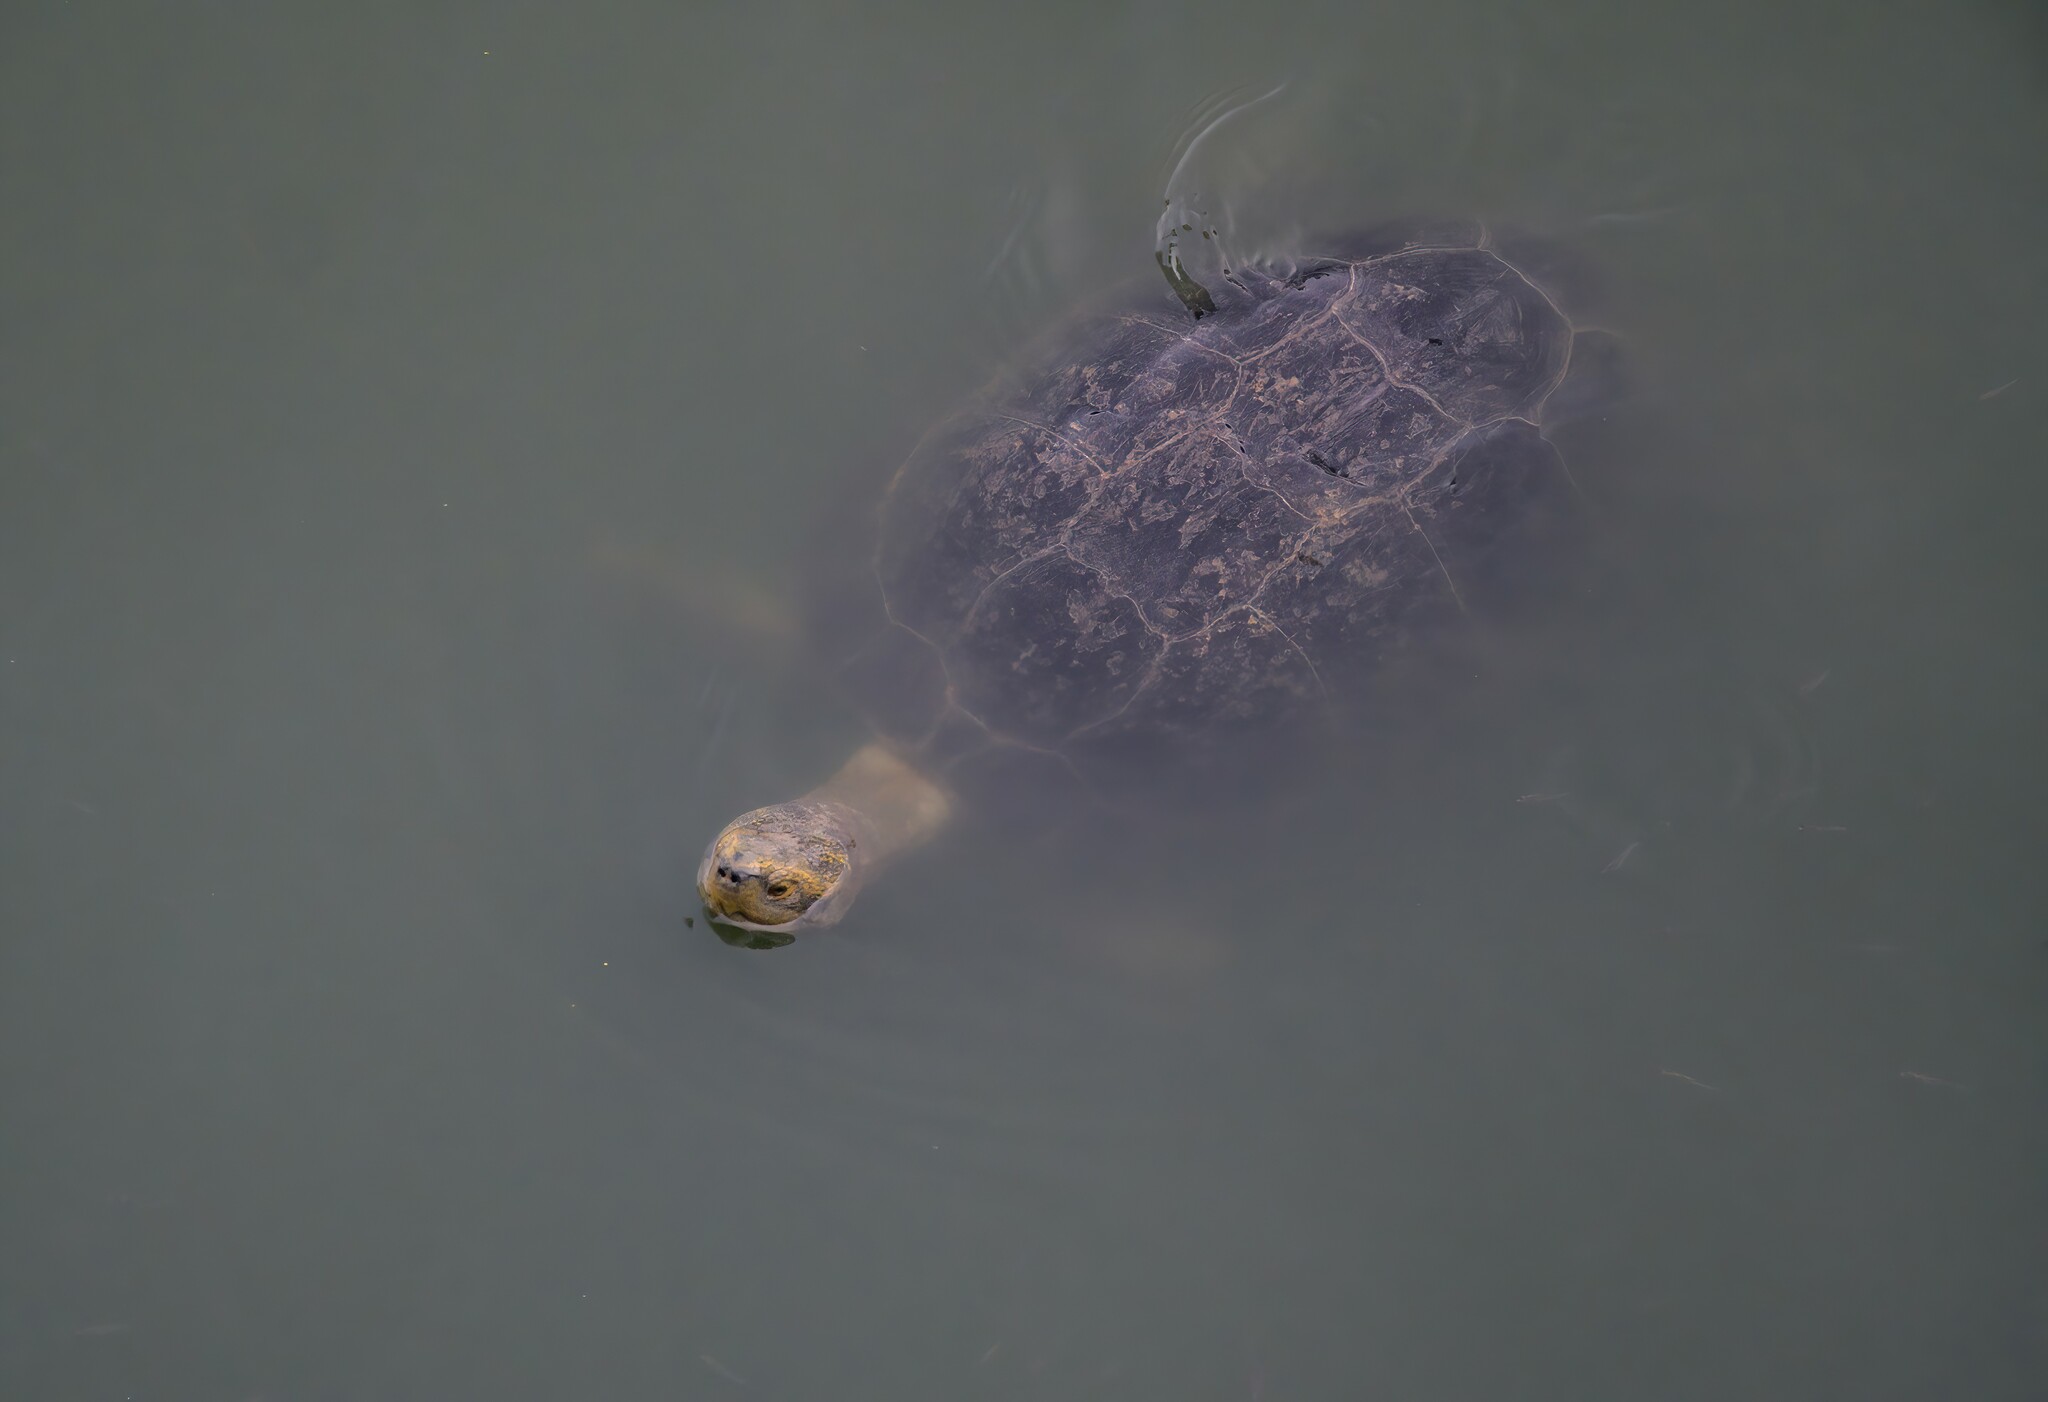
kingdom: Animalia
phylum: Chordata
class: Testudines
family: Geoemydidae
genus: Heosemys
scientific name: Heosemys annandalii
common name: Yellow-headed temple turtle
